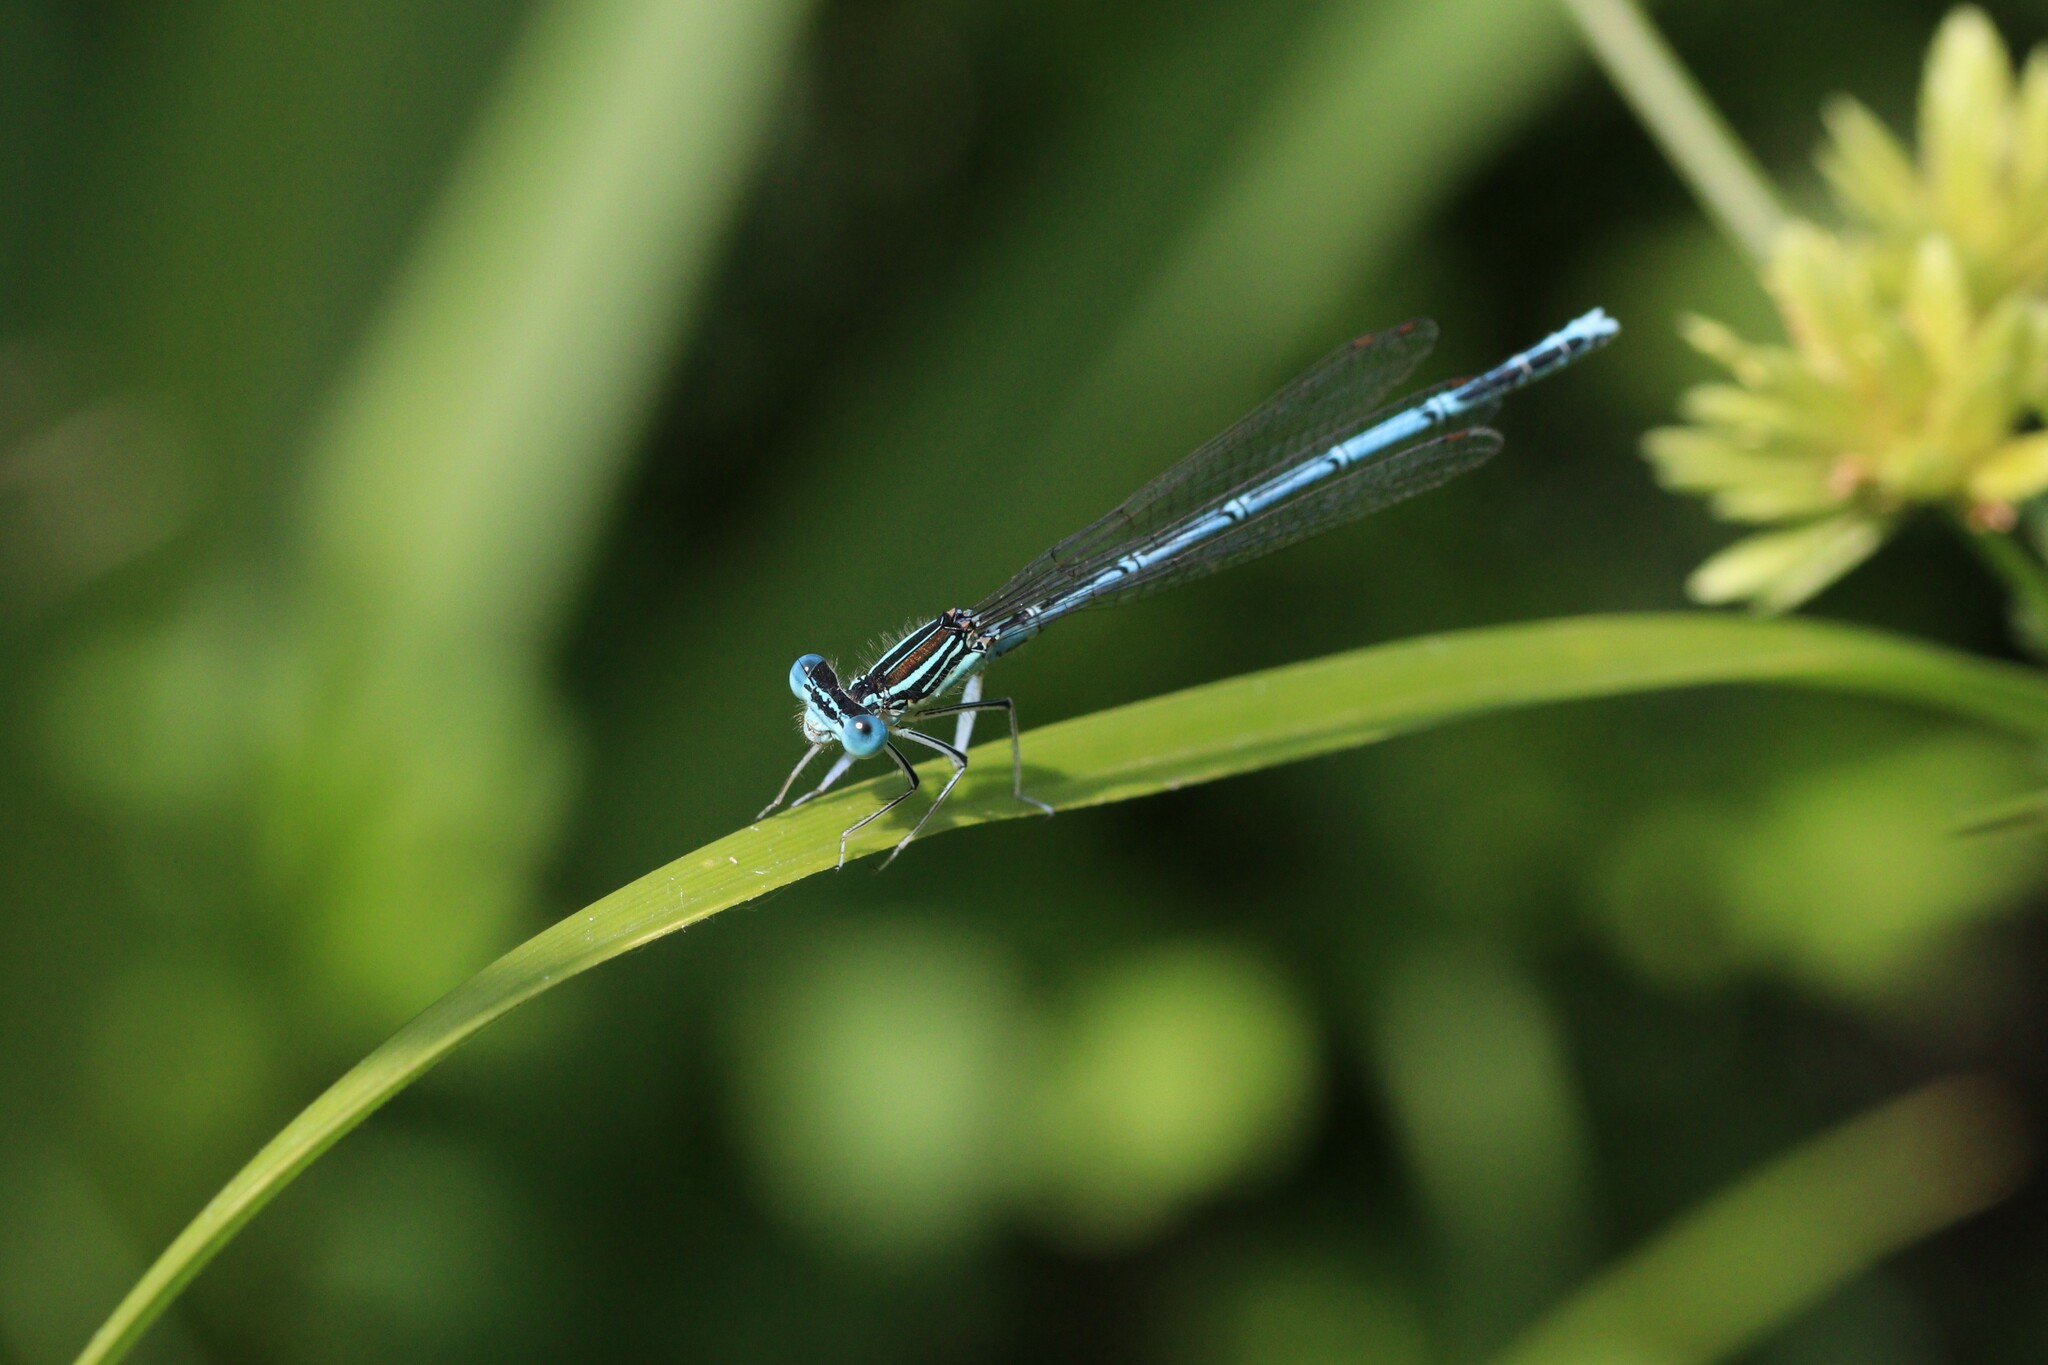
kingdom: Animalia
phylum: Arthropoda
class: Insecta
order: Odonata
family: Platycnemididae
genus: Platycnemis
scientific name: Platycnemis pennipes
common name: White-legged damselfly
